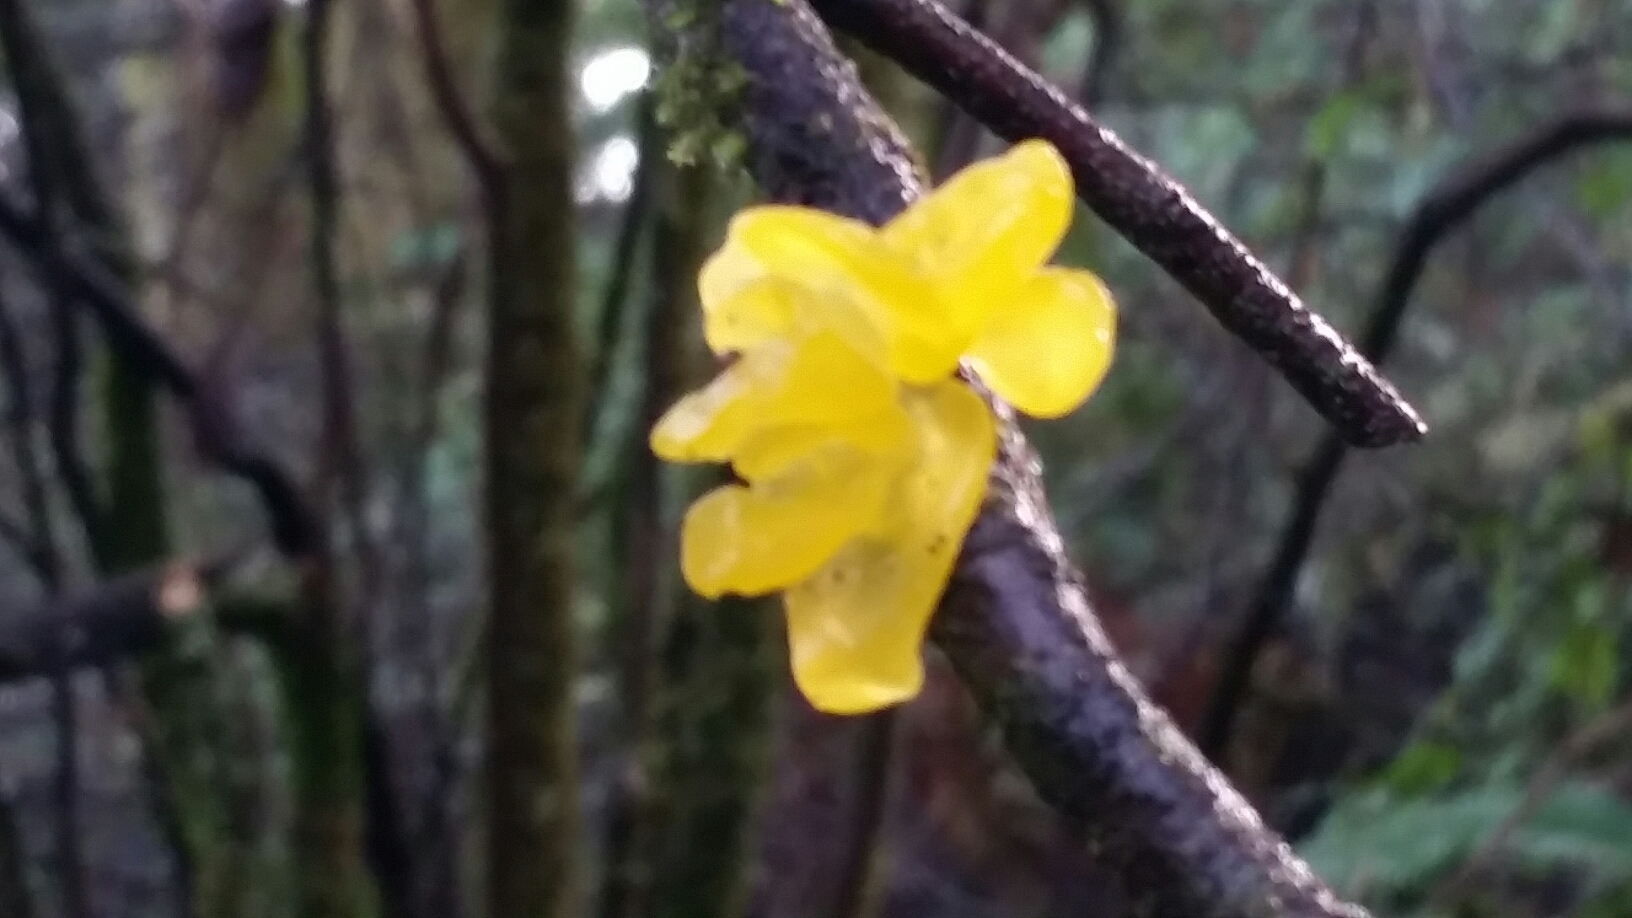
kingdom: Fungi
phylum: Basidiomycota
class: Tremellomycetes
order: Tremellales
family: Tremellaceae
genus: Tremella
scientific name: Tremella mesenterica
